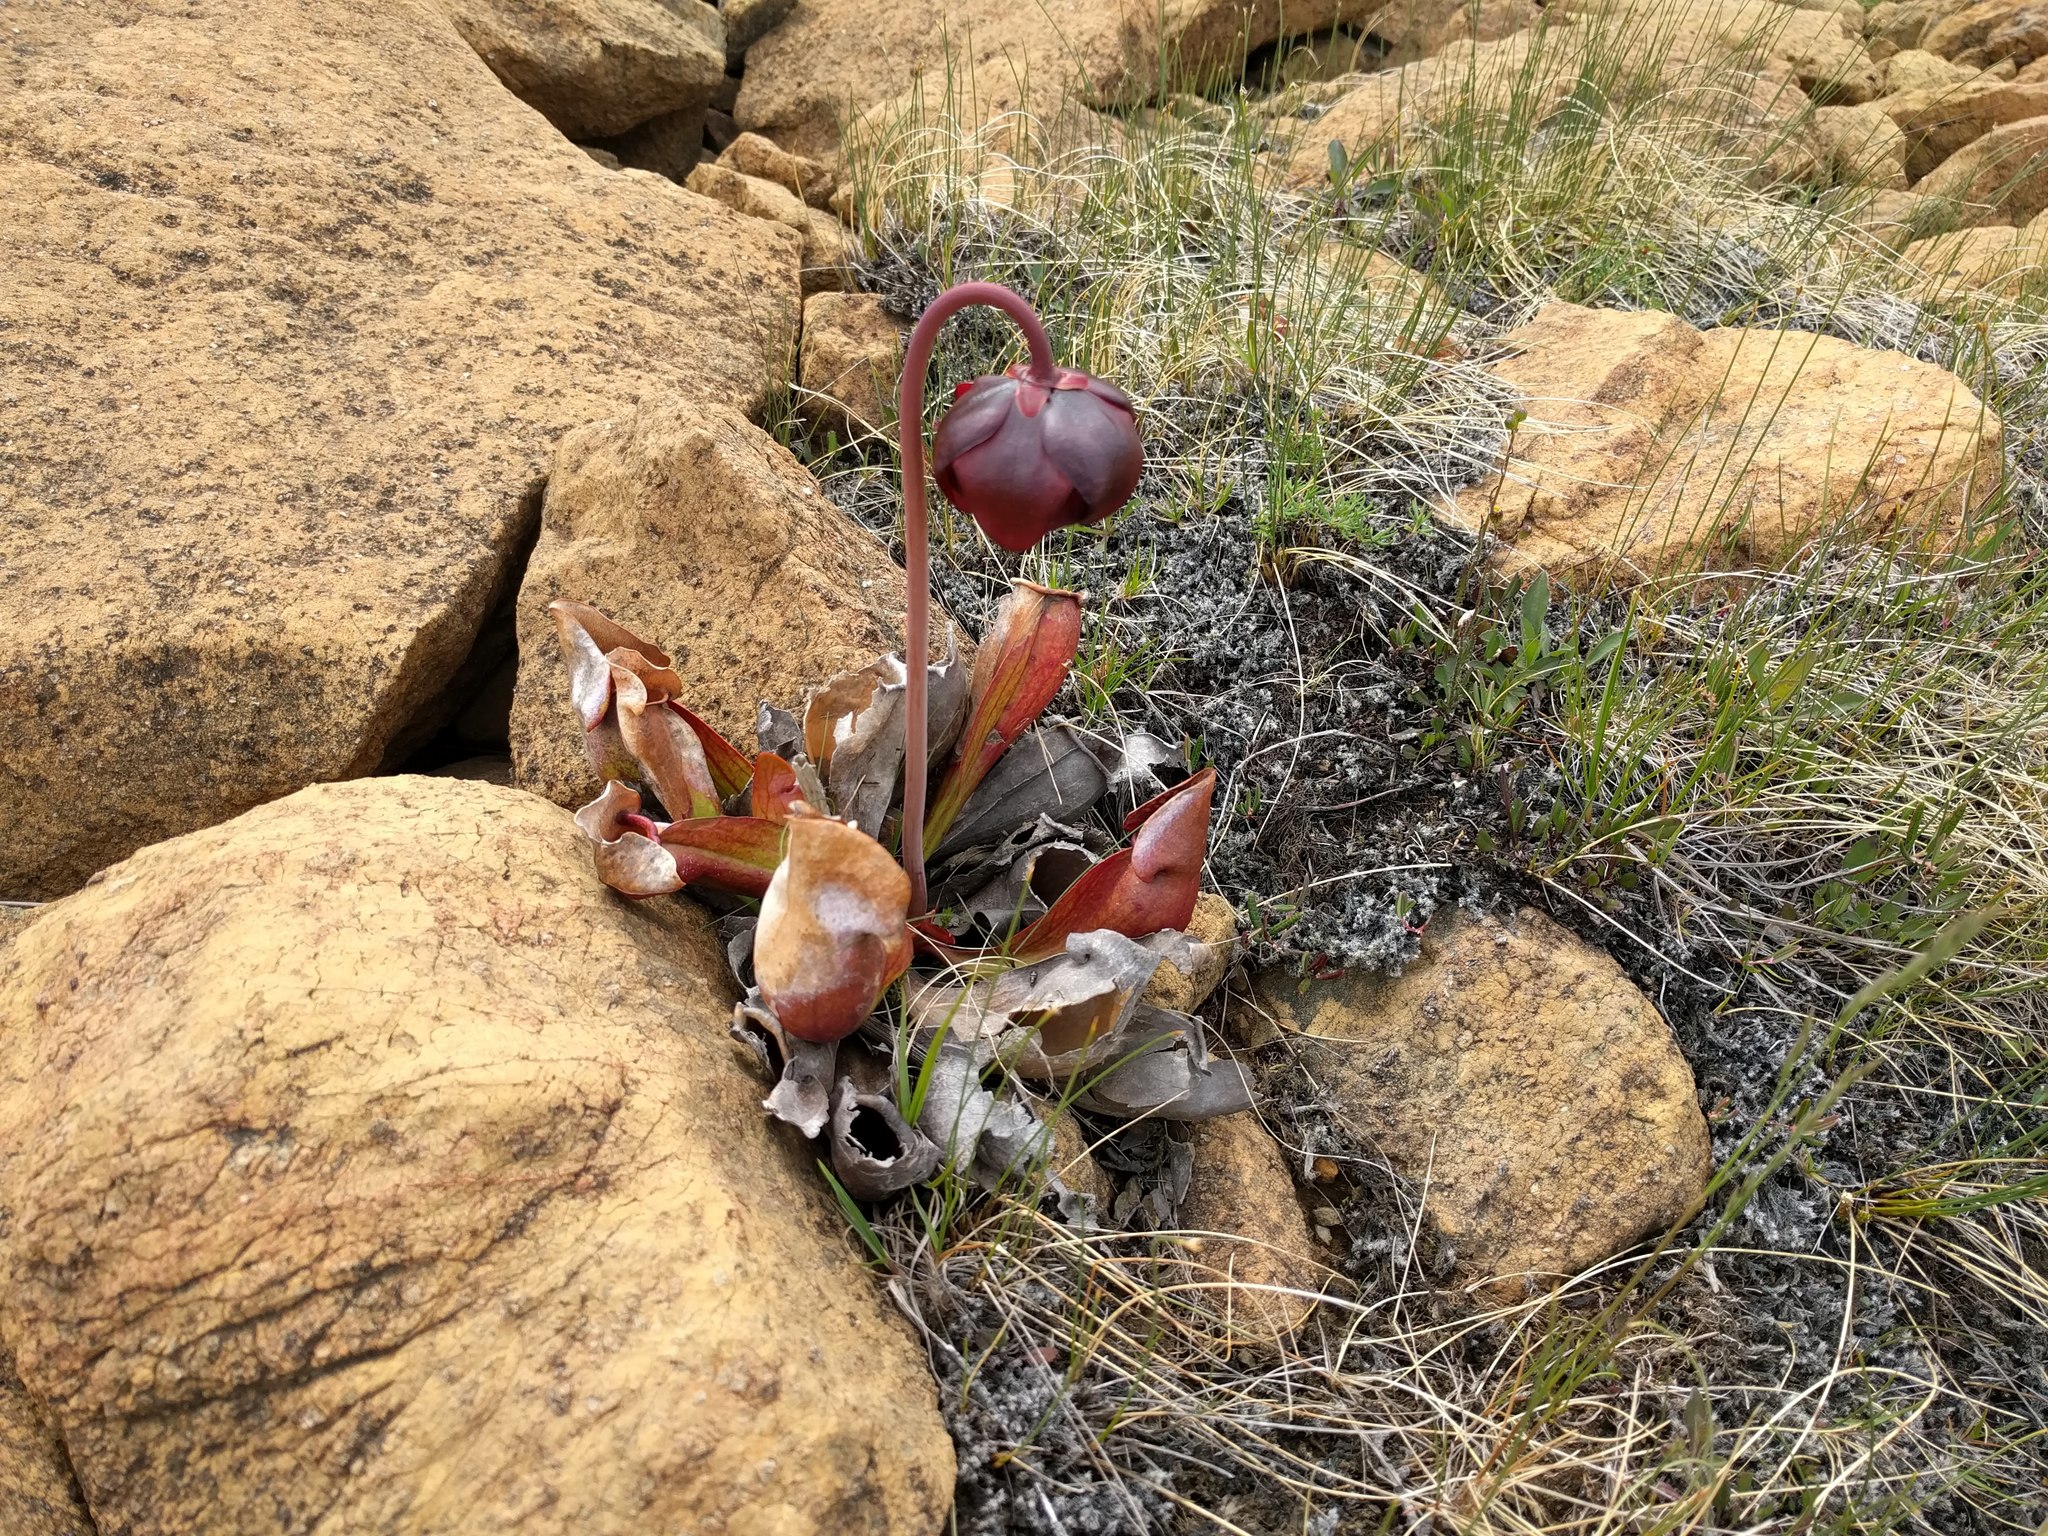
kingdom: Plantae
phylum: Tracheophyta
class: Magnoliopsida
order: Ericales
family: Sarraceniaceae
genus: Sarracenia
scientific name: Sarracenia purpurea
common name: Pitcherplant
